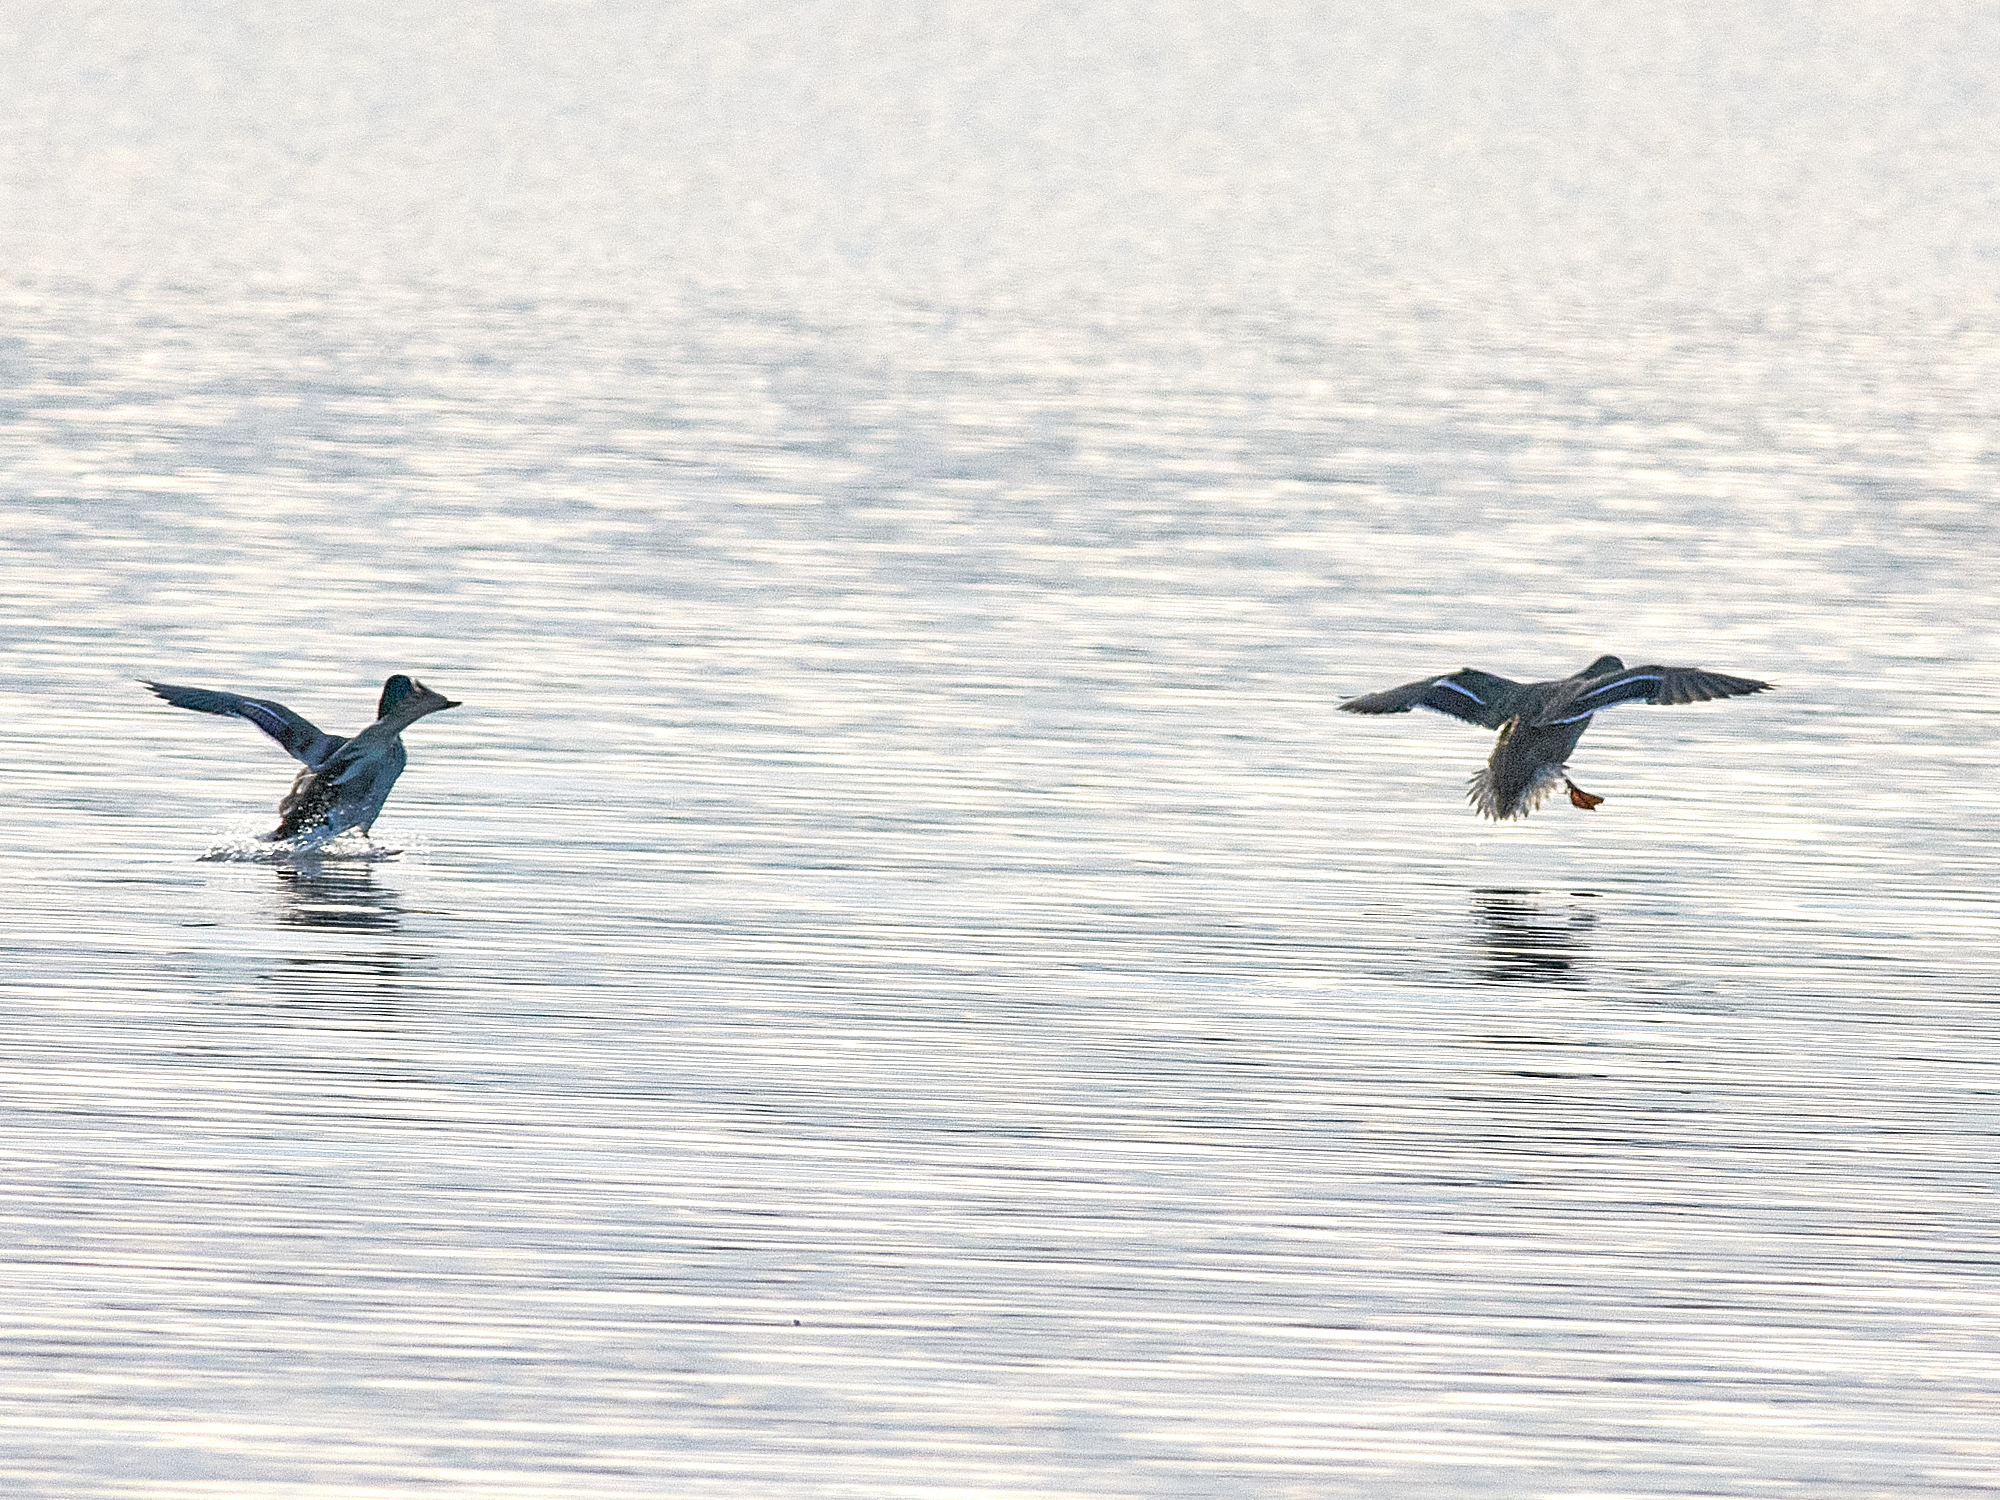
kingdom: Animalia
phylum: Chordata
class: Aves
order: Anseriformes
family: Anatidae
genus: Anas
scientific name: Anas platyrhynchos
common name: Mallard
